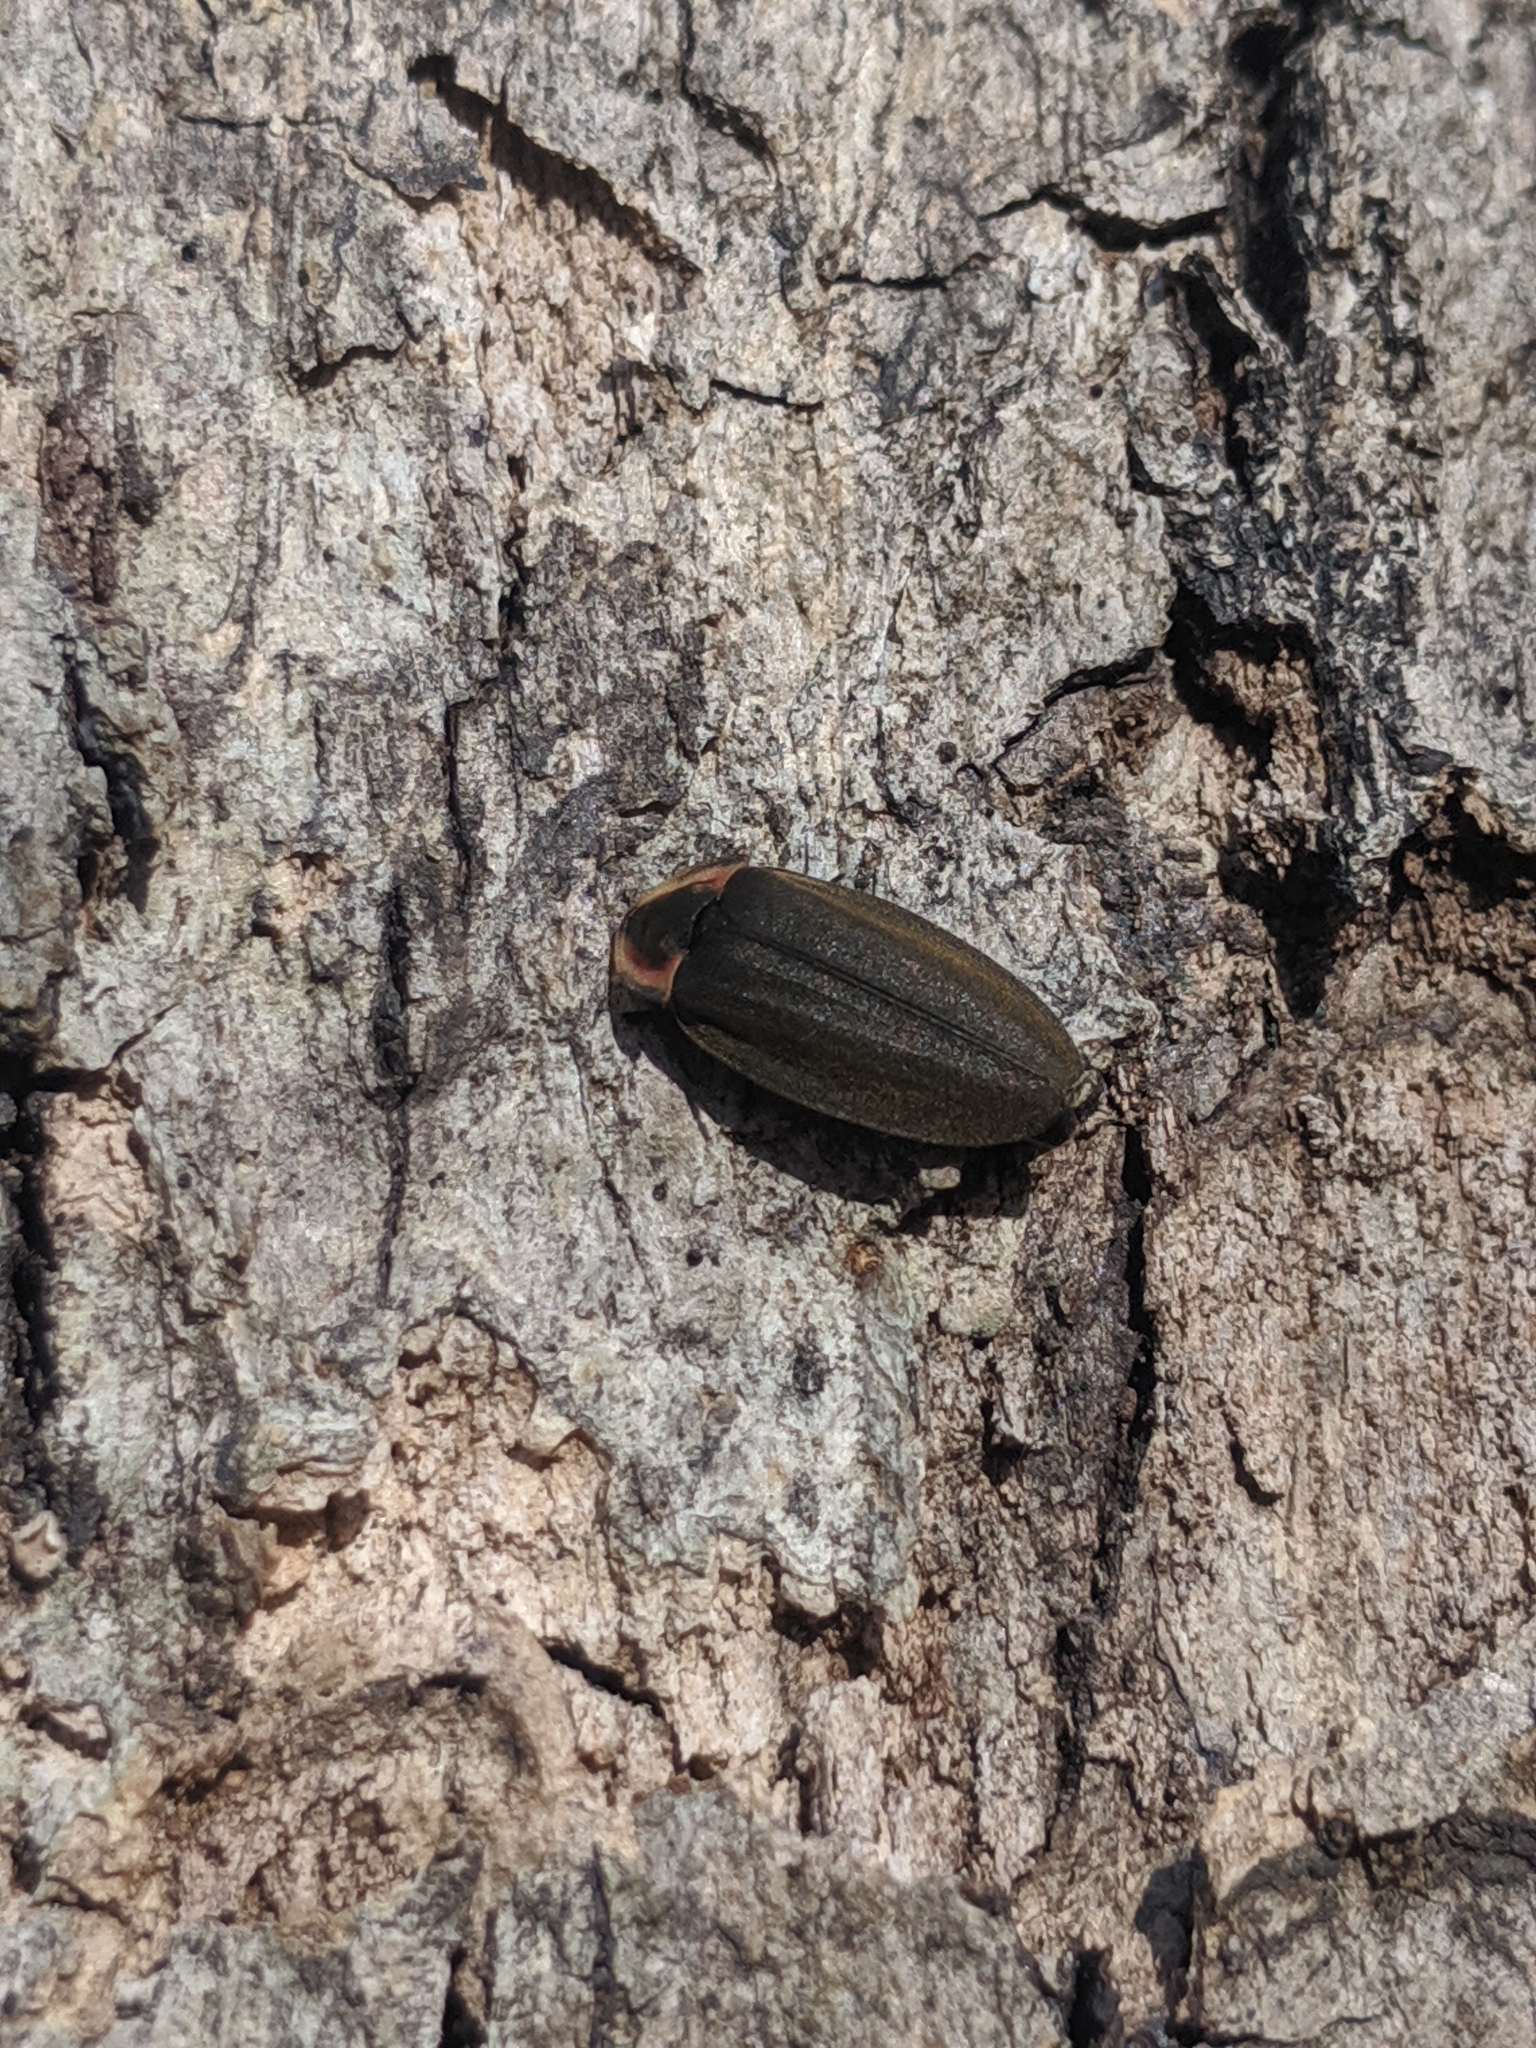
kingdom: Animalia
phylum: Arthropoda
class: Insecta
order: Coleoptera
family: Lampyridae
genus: Photinus
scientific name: Photinus corrusca
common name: Winter firefly
